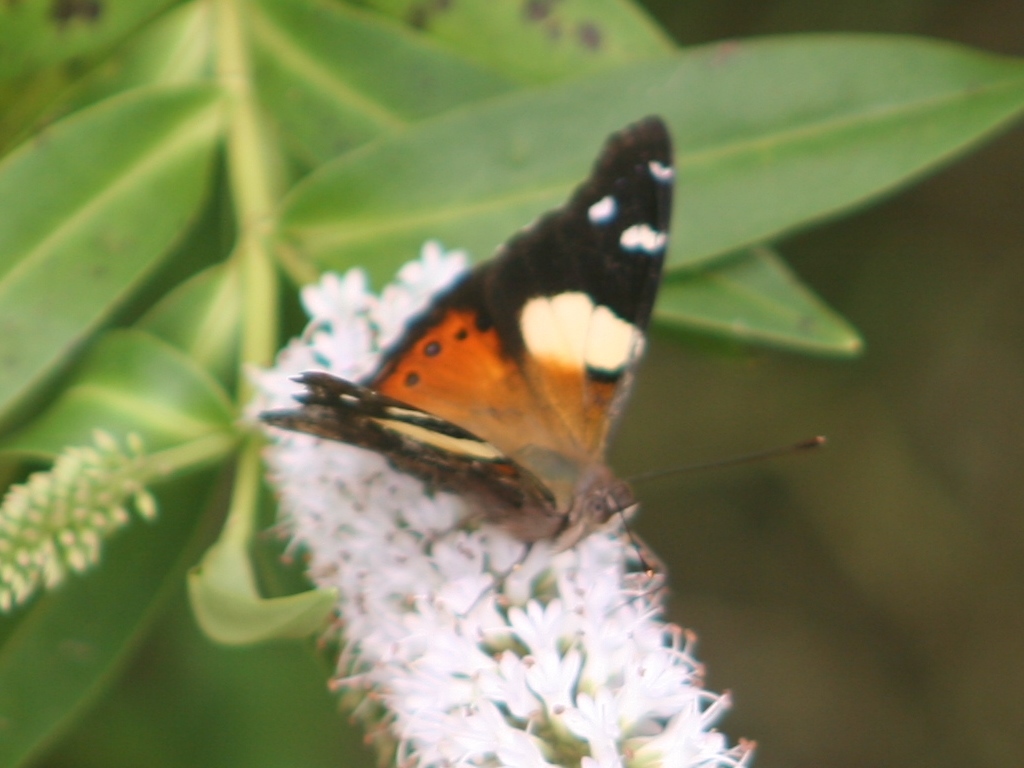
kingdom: Animalia
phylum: Arthropoda
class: Insecta
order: Lepidoptera
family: Nymphalidae
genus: Vanessa
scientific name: Vanessa itea
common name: Yellow admiral
